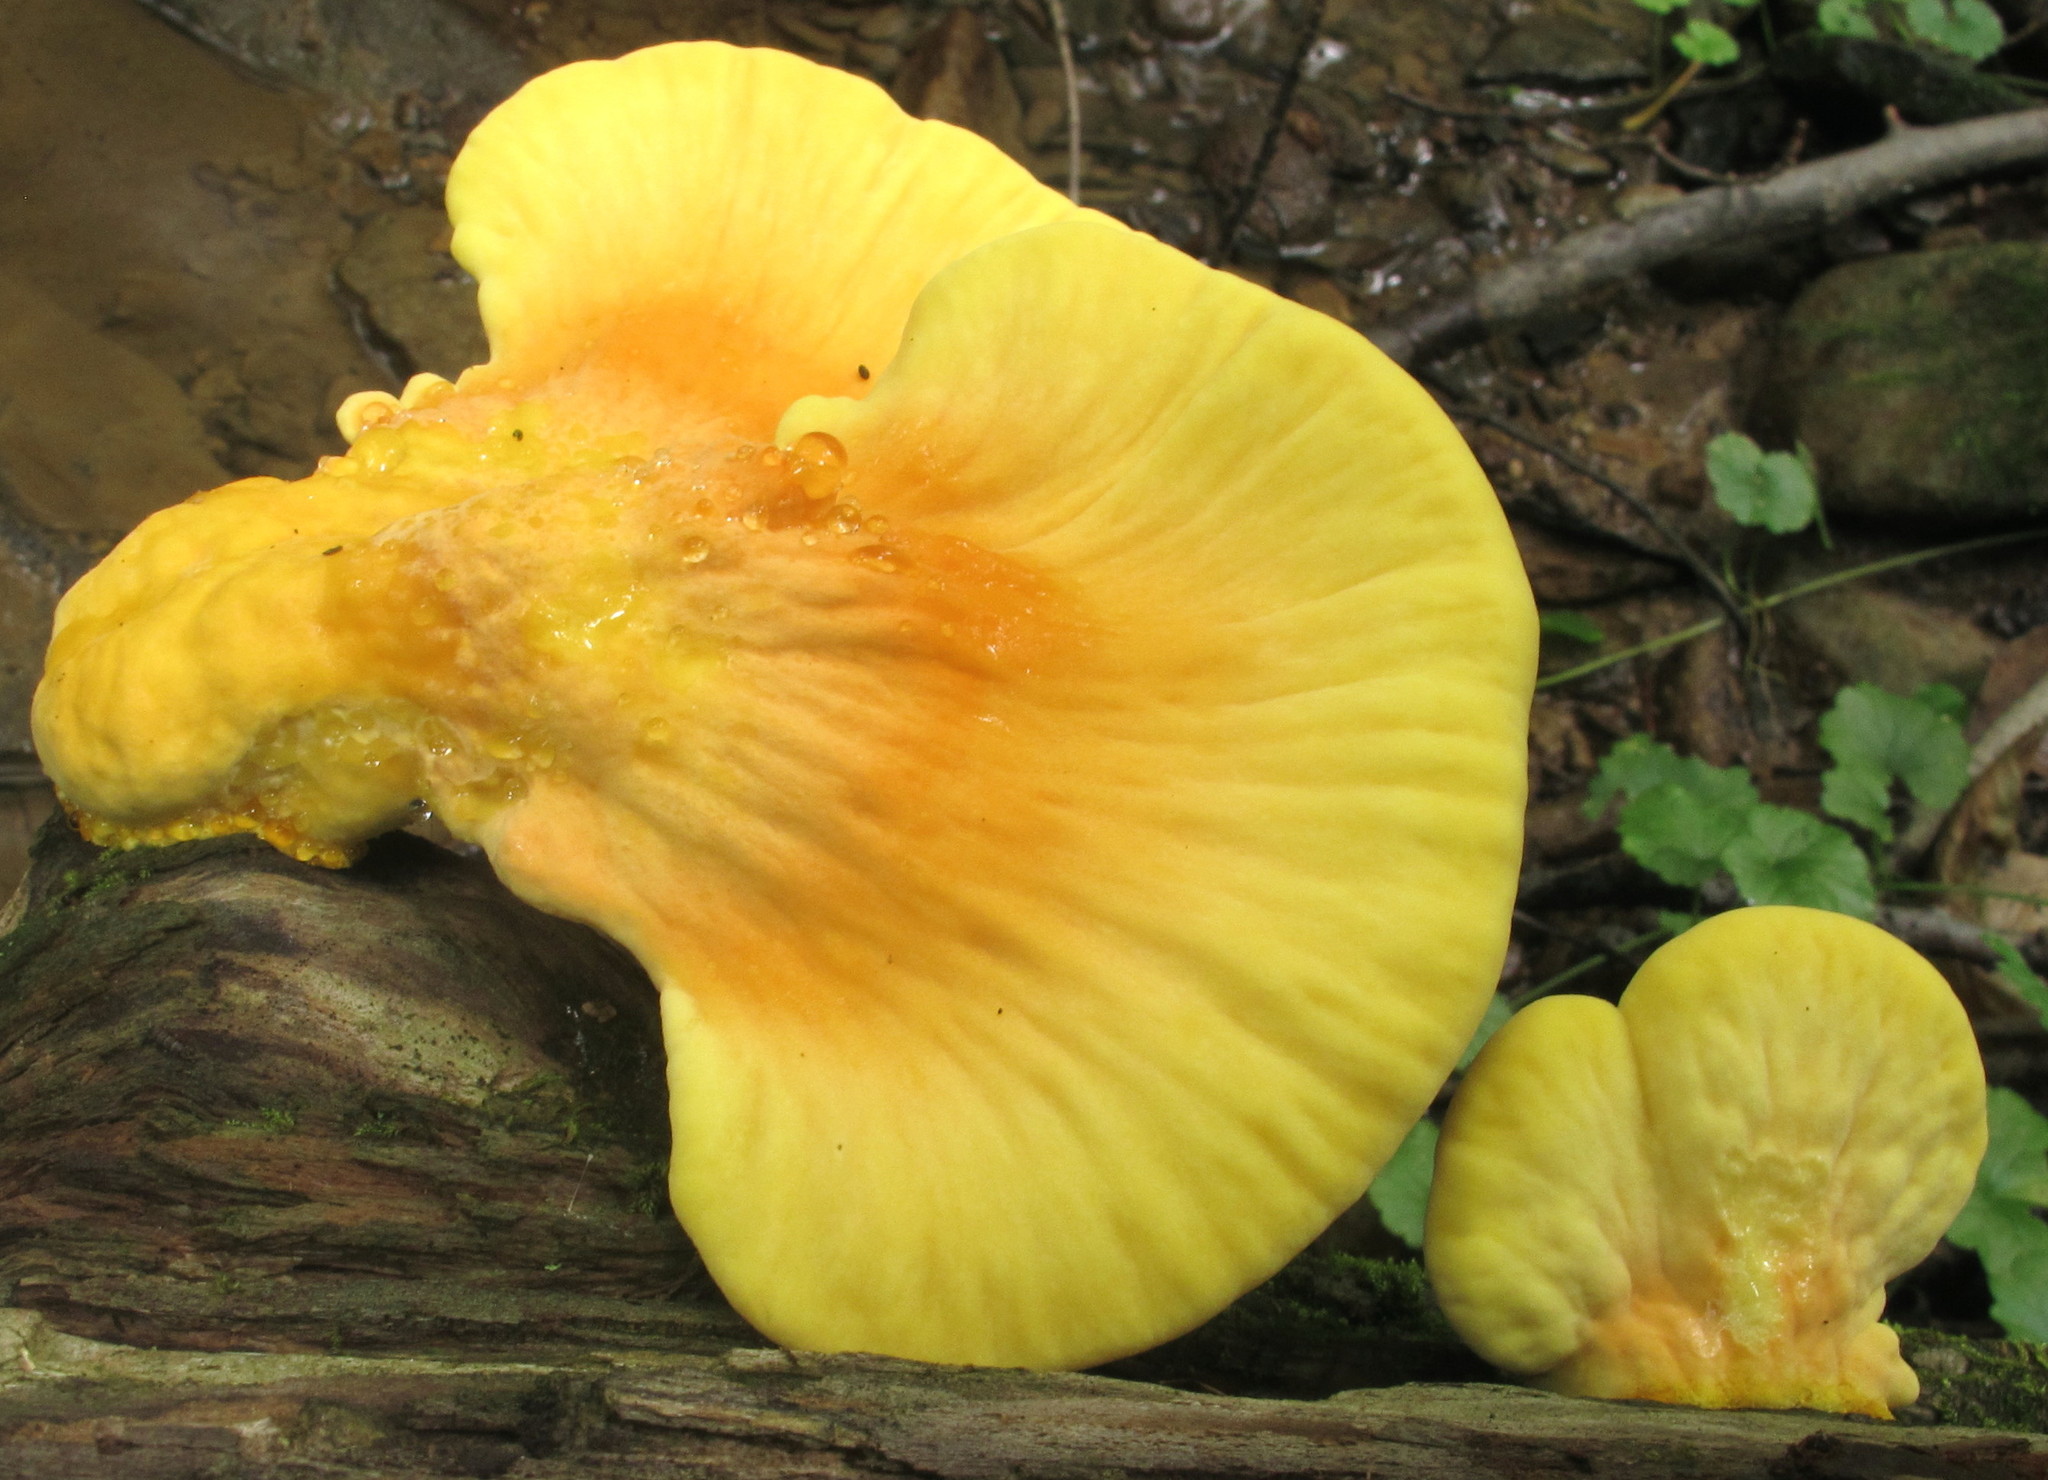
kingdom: Fungi
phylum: Basidiomycota
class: Agaricomycetes
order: Polyporales
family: Laetiporaceae
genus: Laetiporus
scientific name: Laetiporus sulphureus
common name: Chicken of the woods
